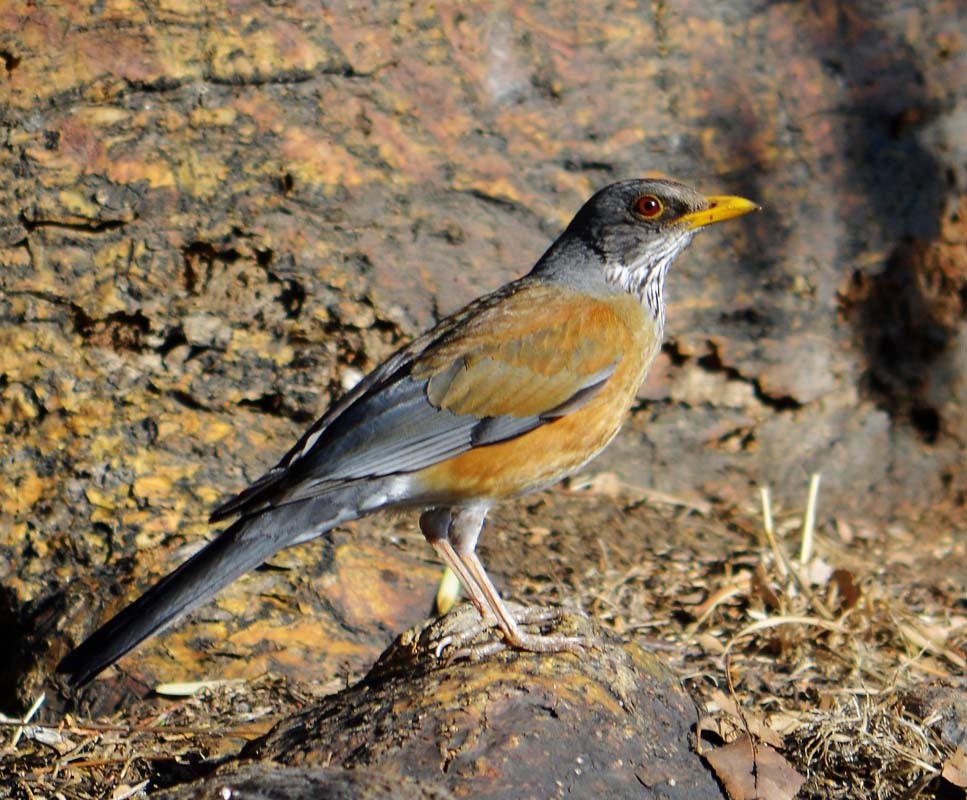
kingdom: Animalia
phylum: Chordata
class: Aves
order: Passeriformes
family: Turdidae
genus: Turdus
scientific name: Turdus rufopalliatus
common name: Rufous-backed robin
